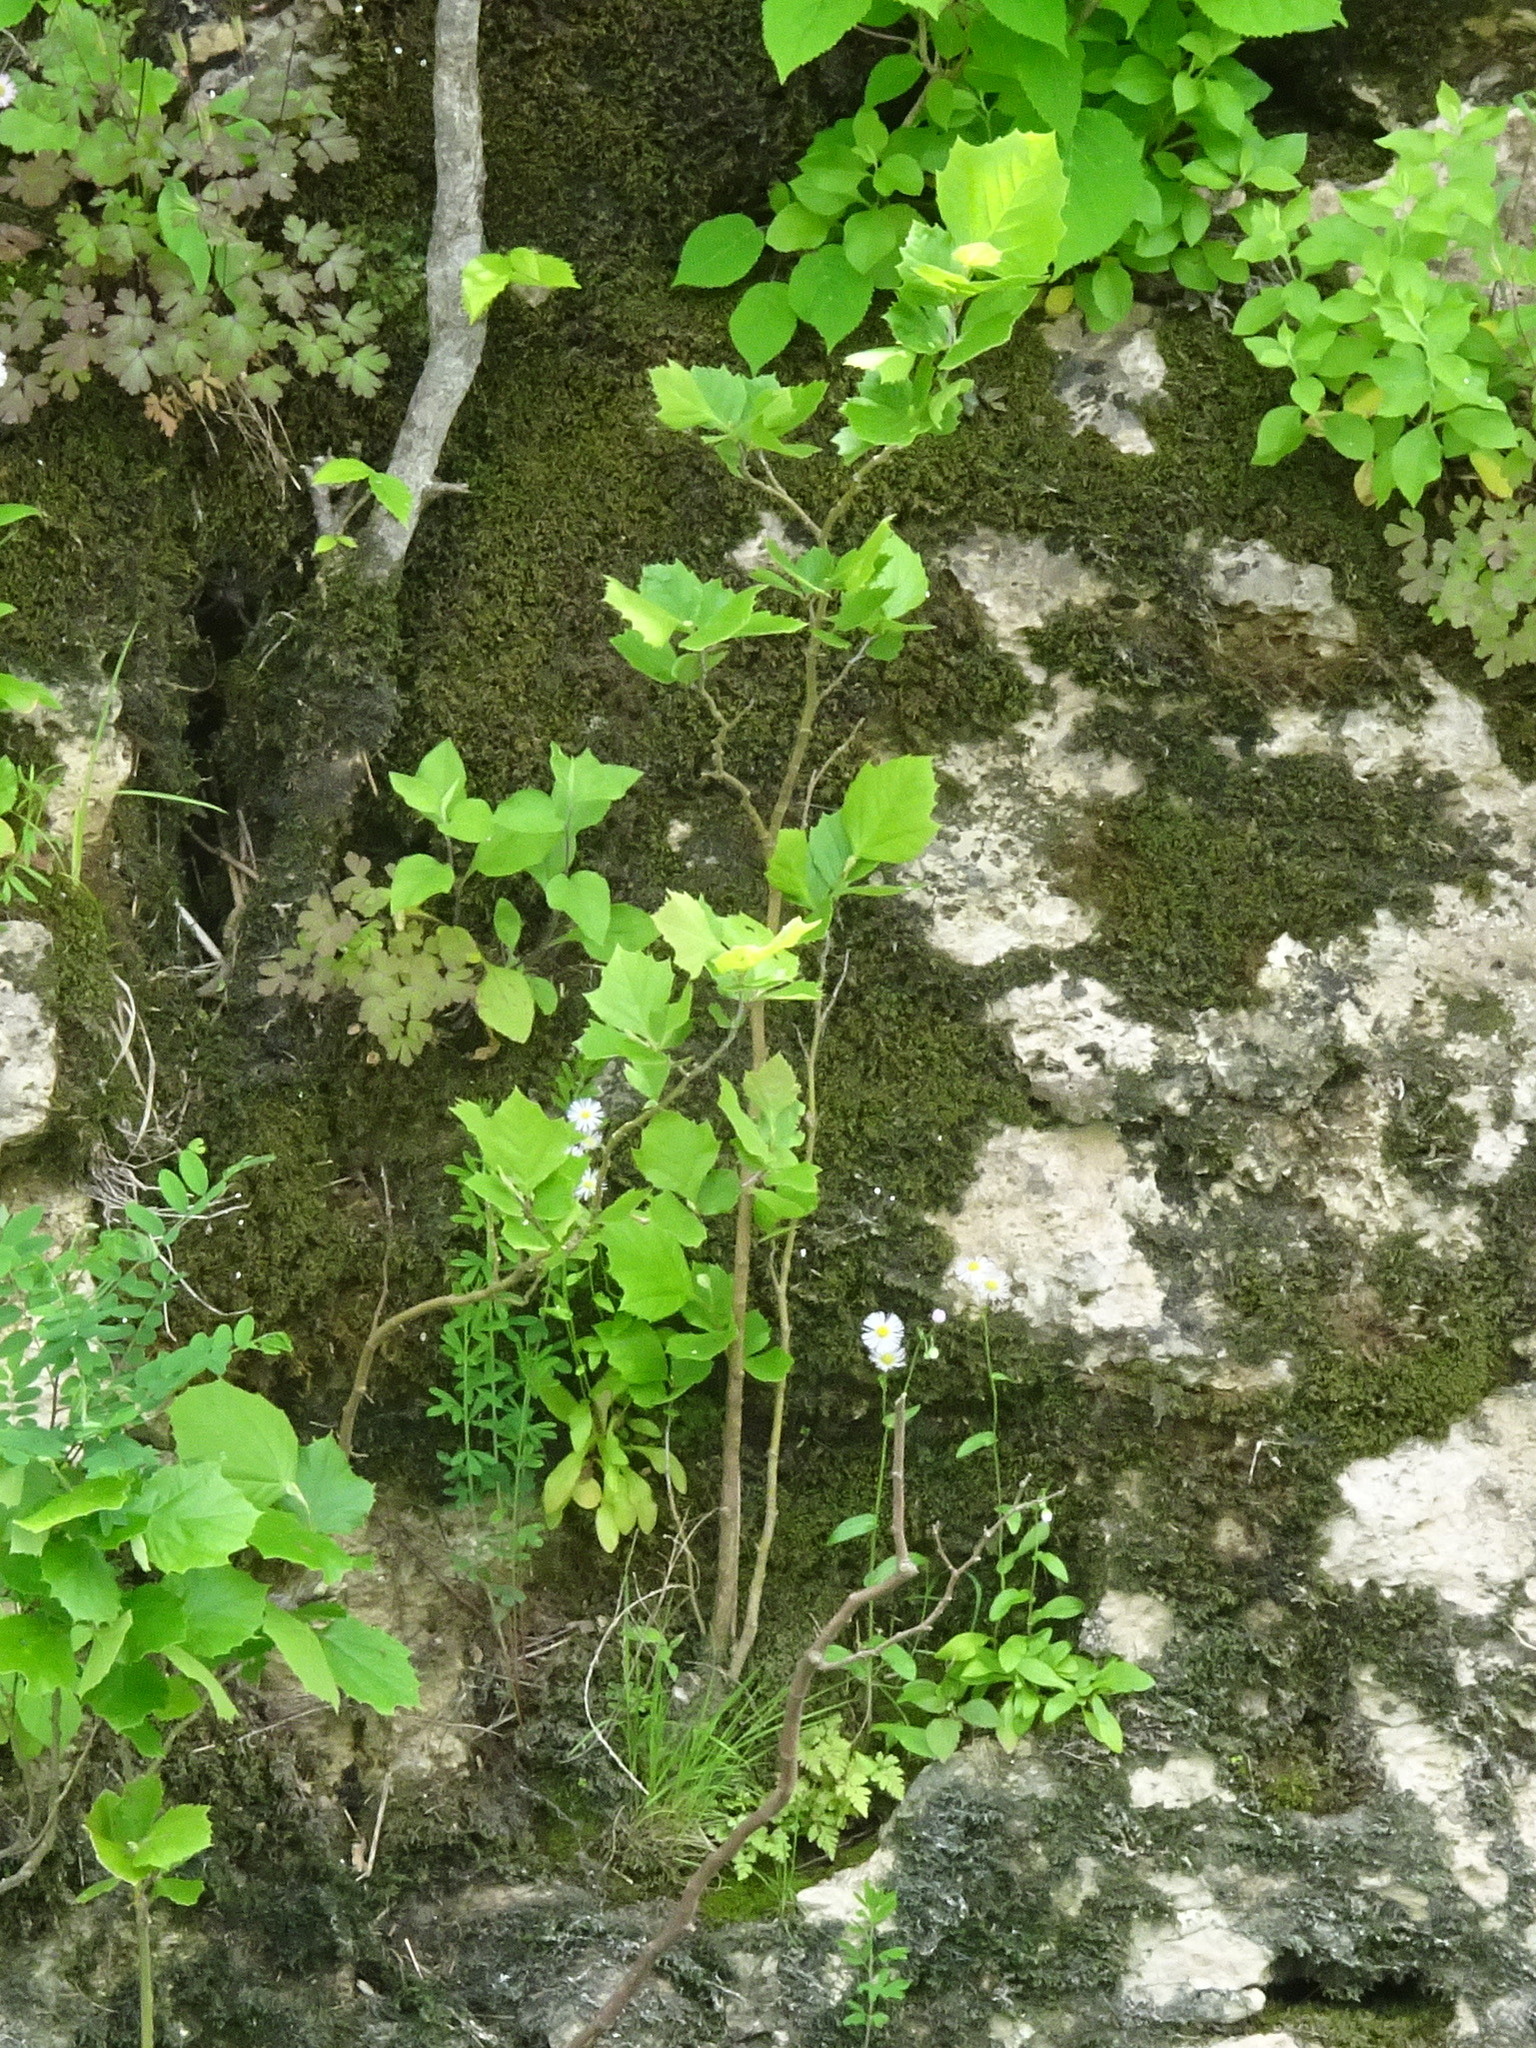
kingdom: Plantae
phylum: Tracheophyta
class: Magnoliopsida
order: Fabales
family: Fabaceae
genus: Lespedeza
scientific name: Lespedeza cuneata
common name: Chinese bush-clover
